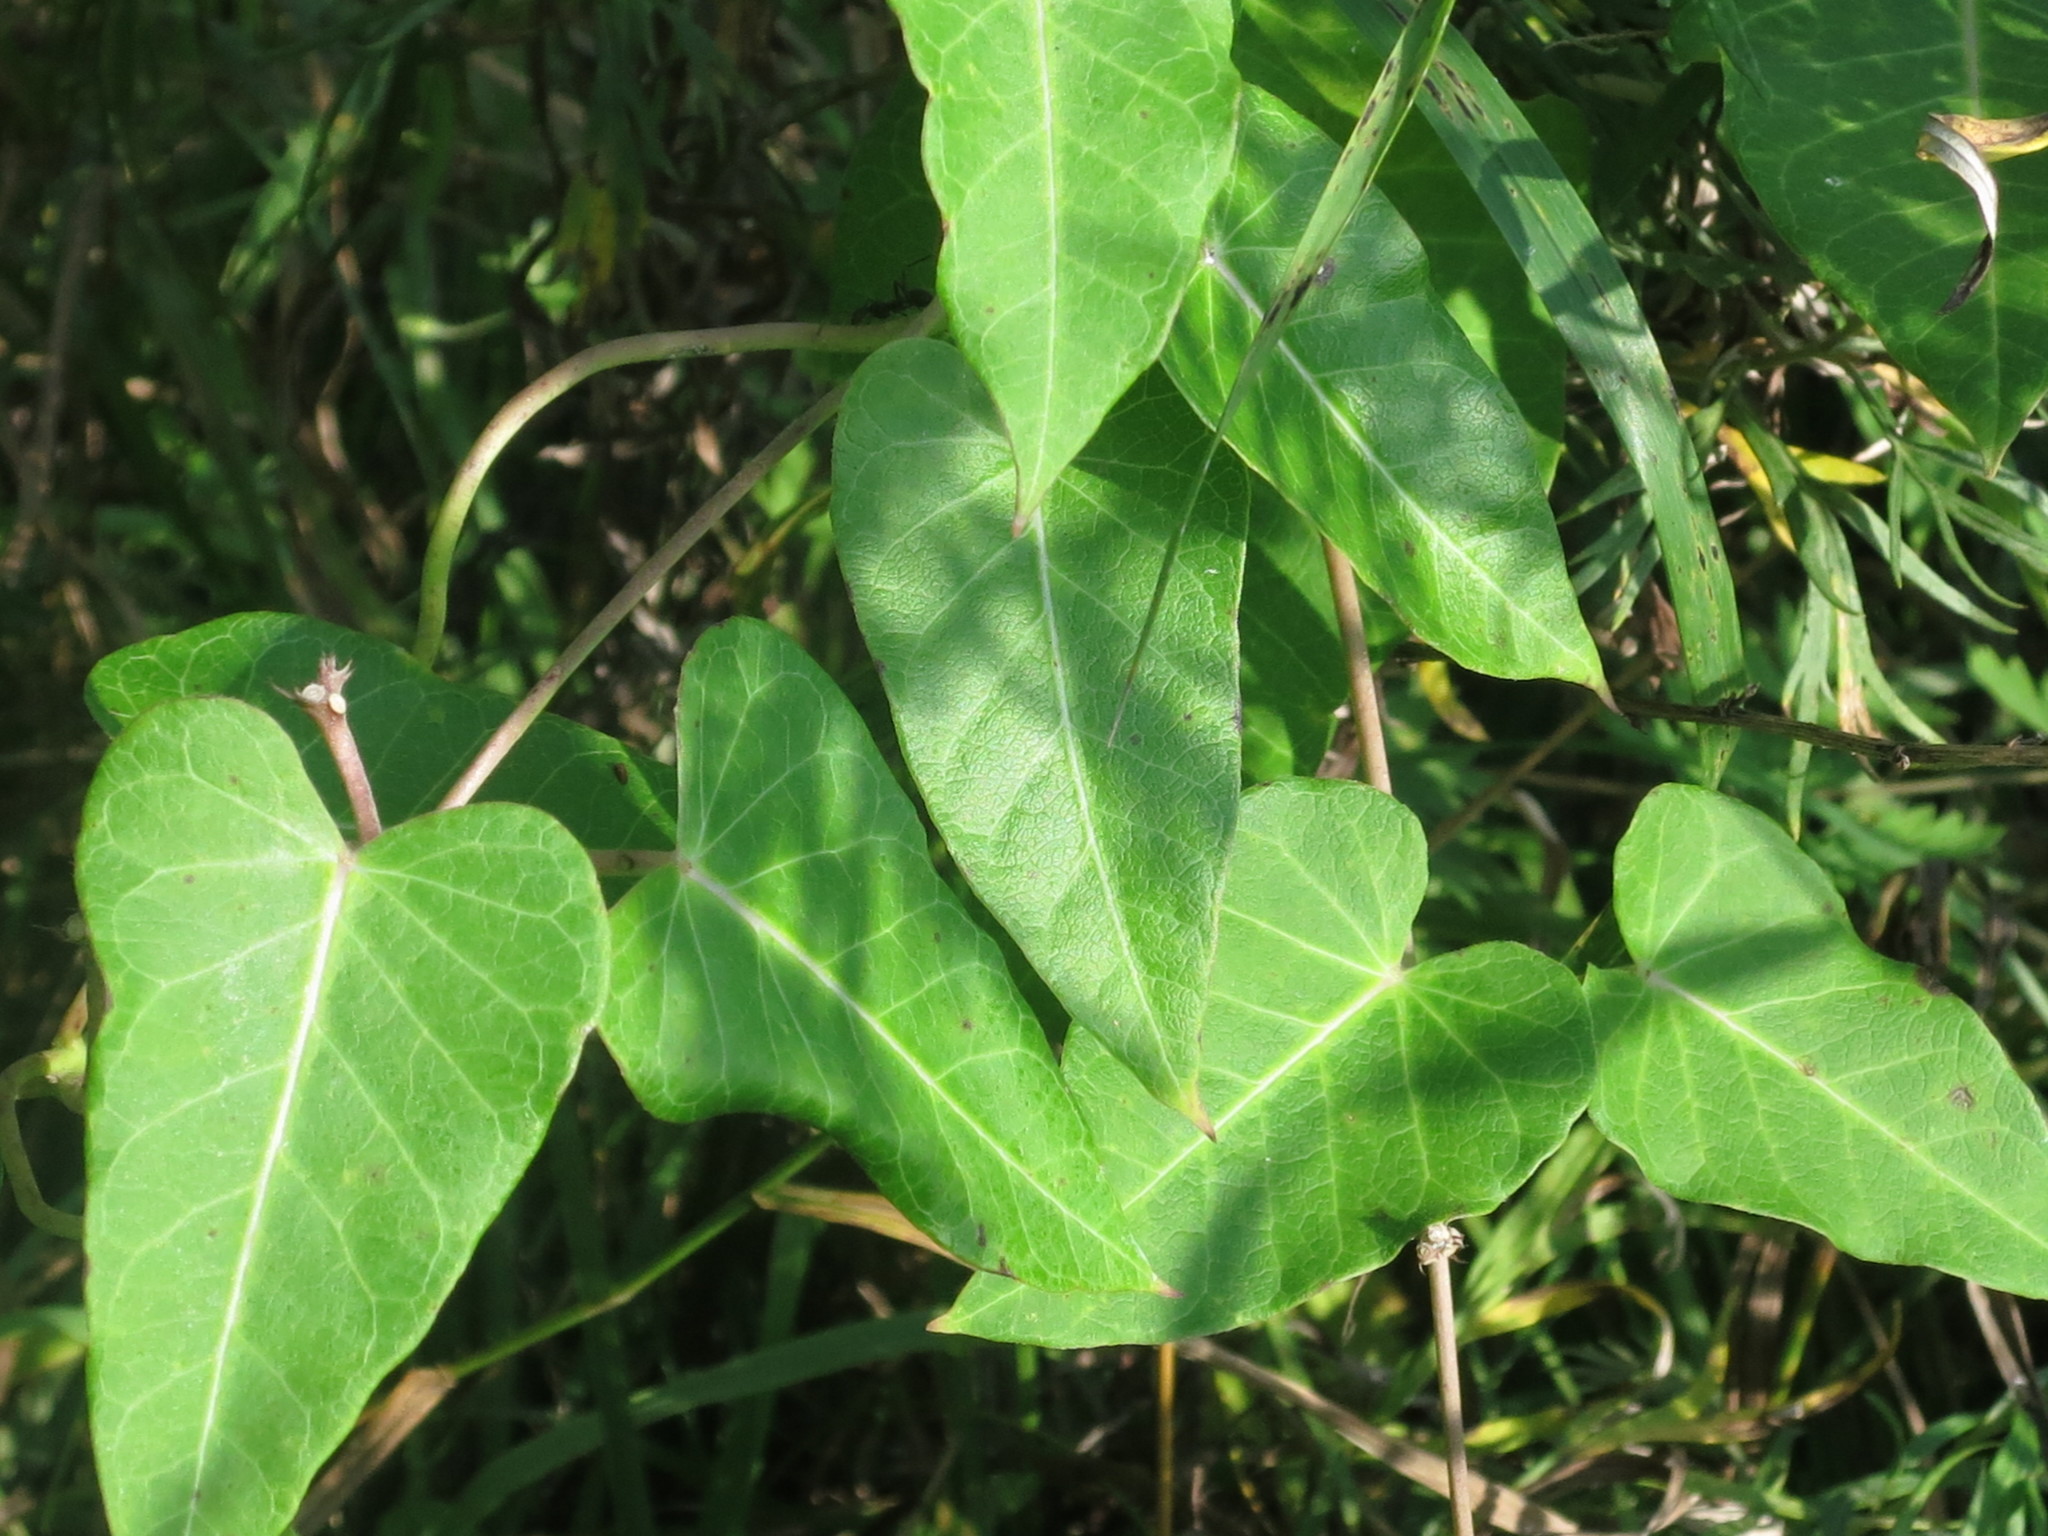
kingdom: Plantae
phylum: Tracheophyta
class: Magnoliopsida
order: Gentianales
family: Apocynaceae
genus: Cynanchum
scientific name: Cynanchum rostellatum
